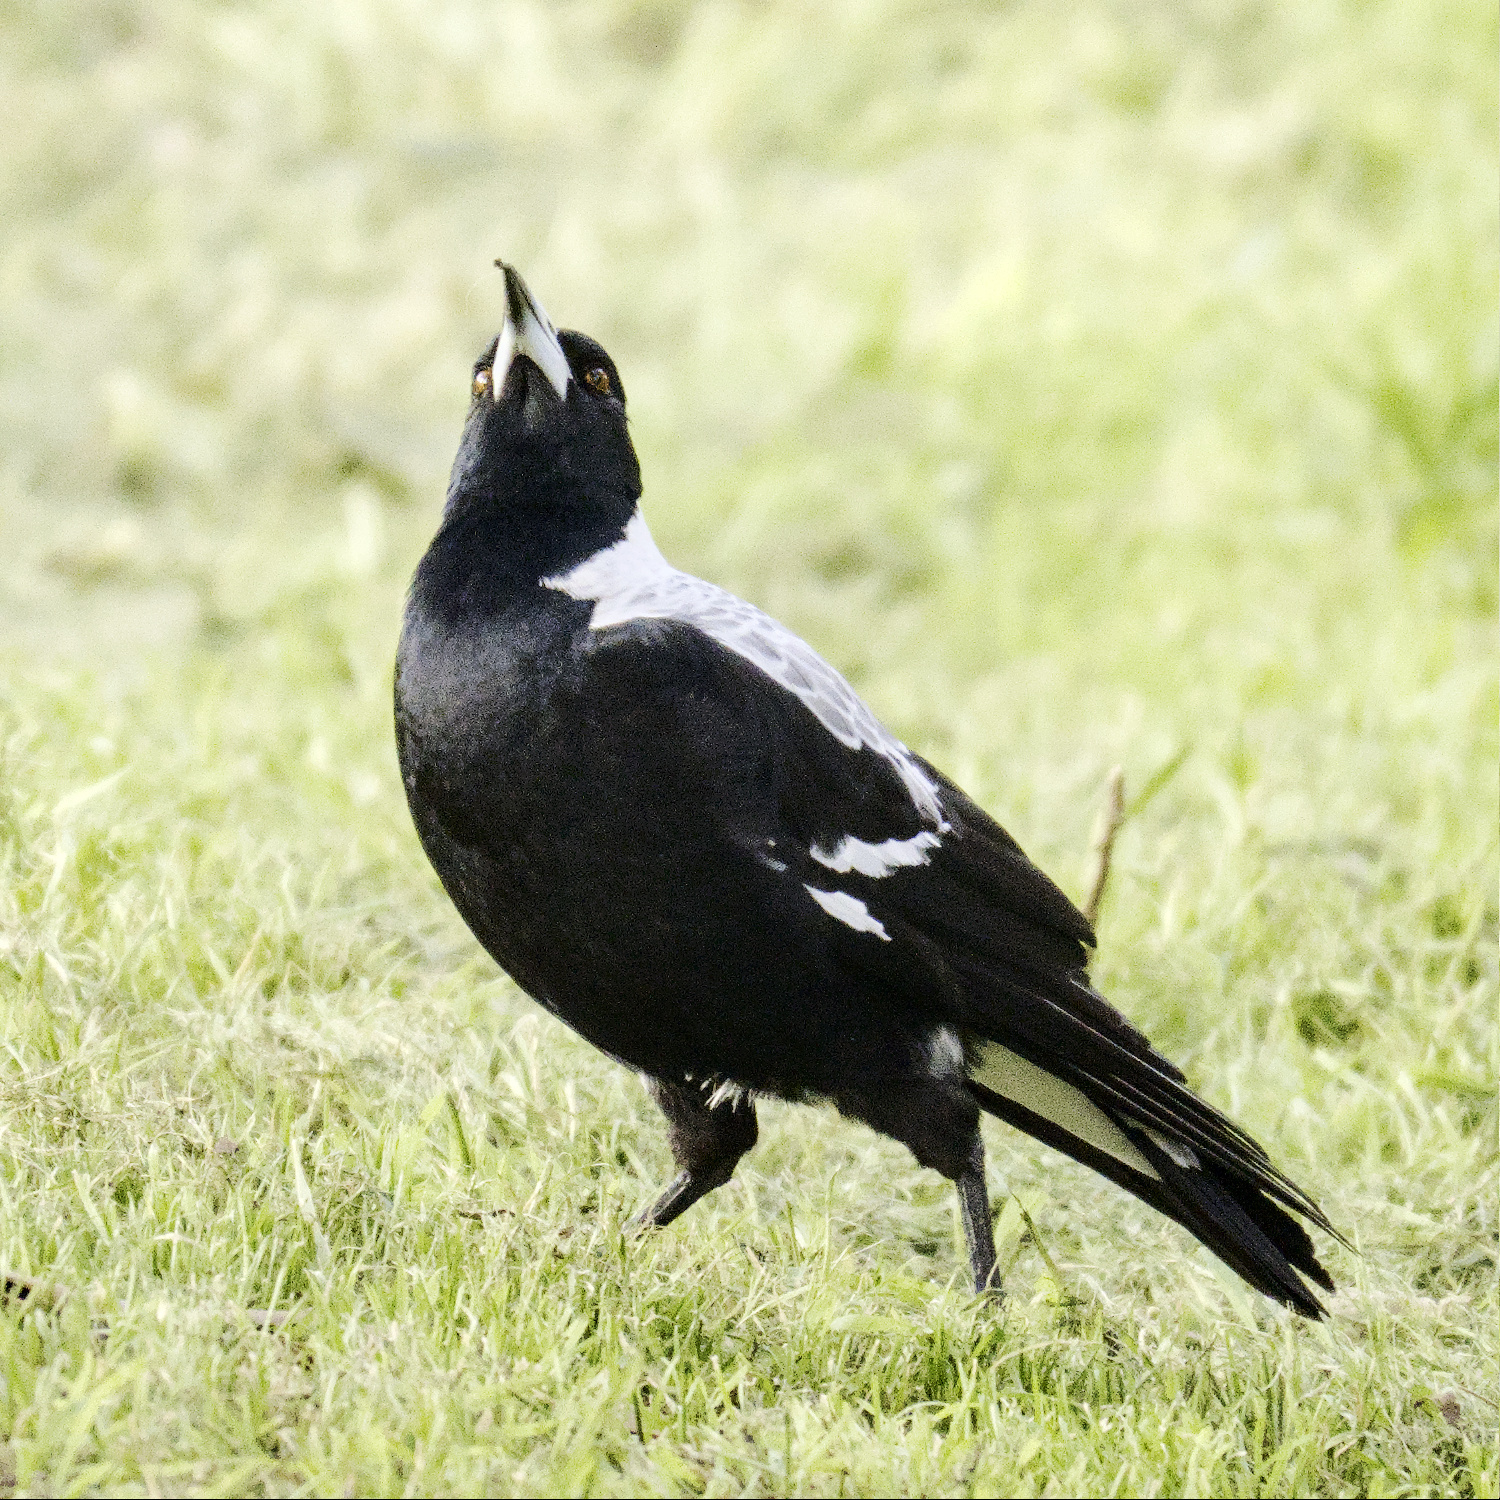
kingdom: Animalia
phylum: Chordata
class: Aves
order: Passeriformes
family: Cracticidae
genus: Gymnorhina
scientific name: Gymnorhina tibicen
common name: Australian magpie
